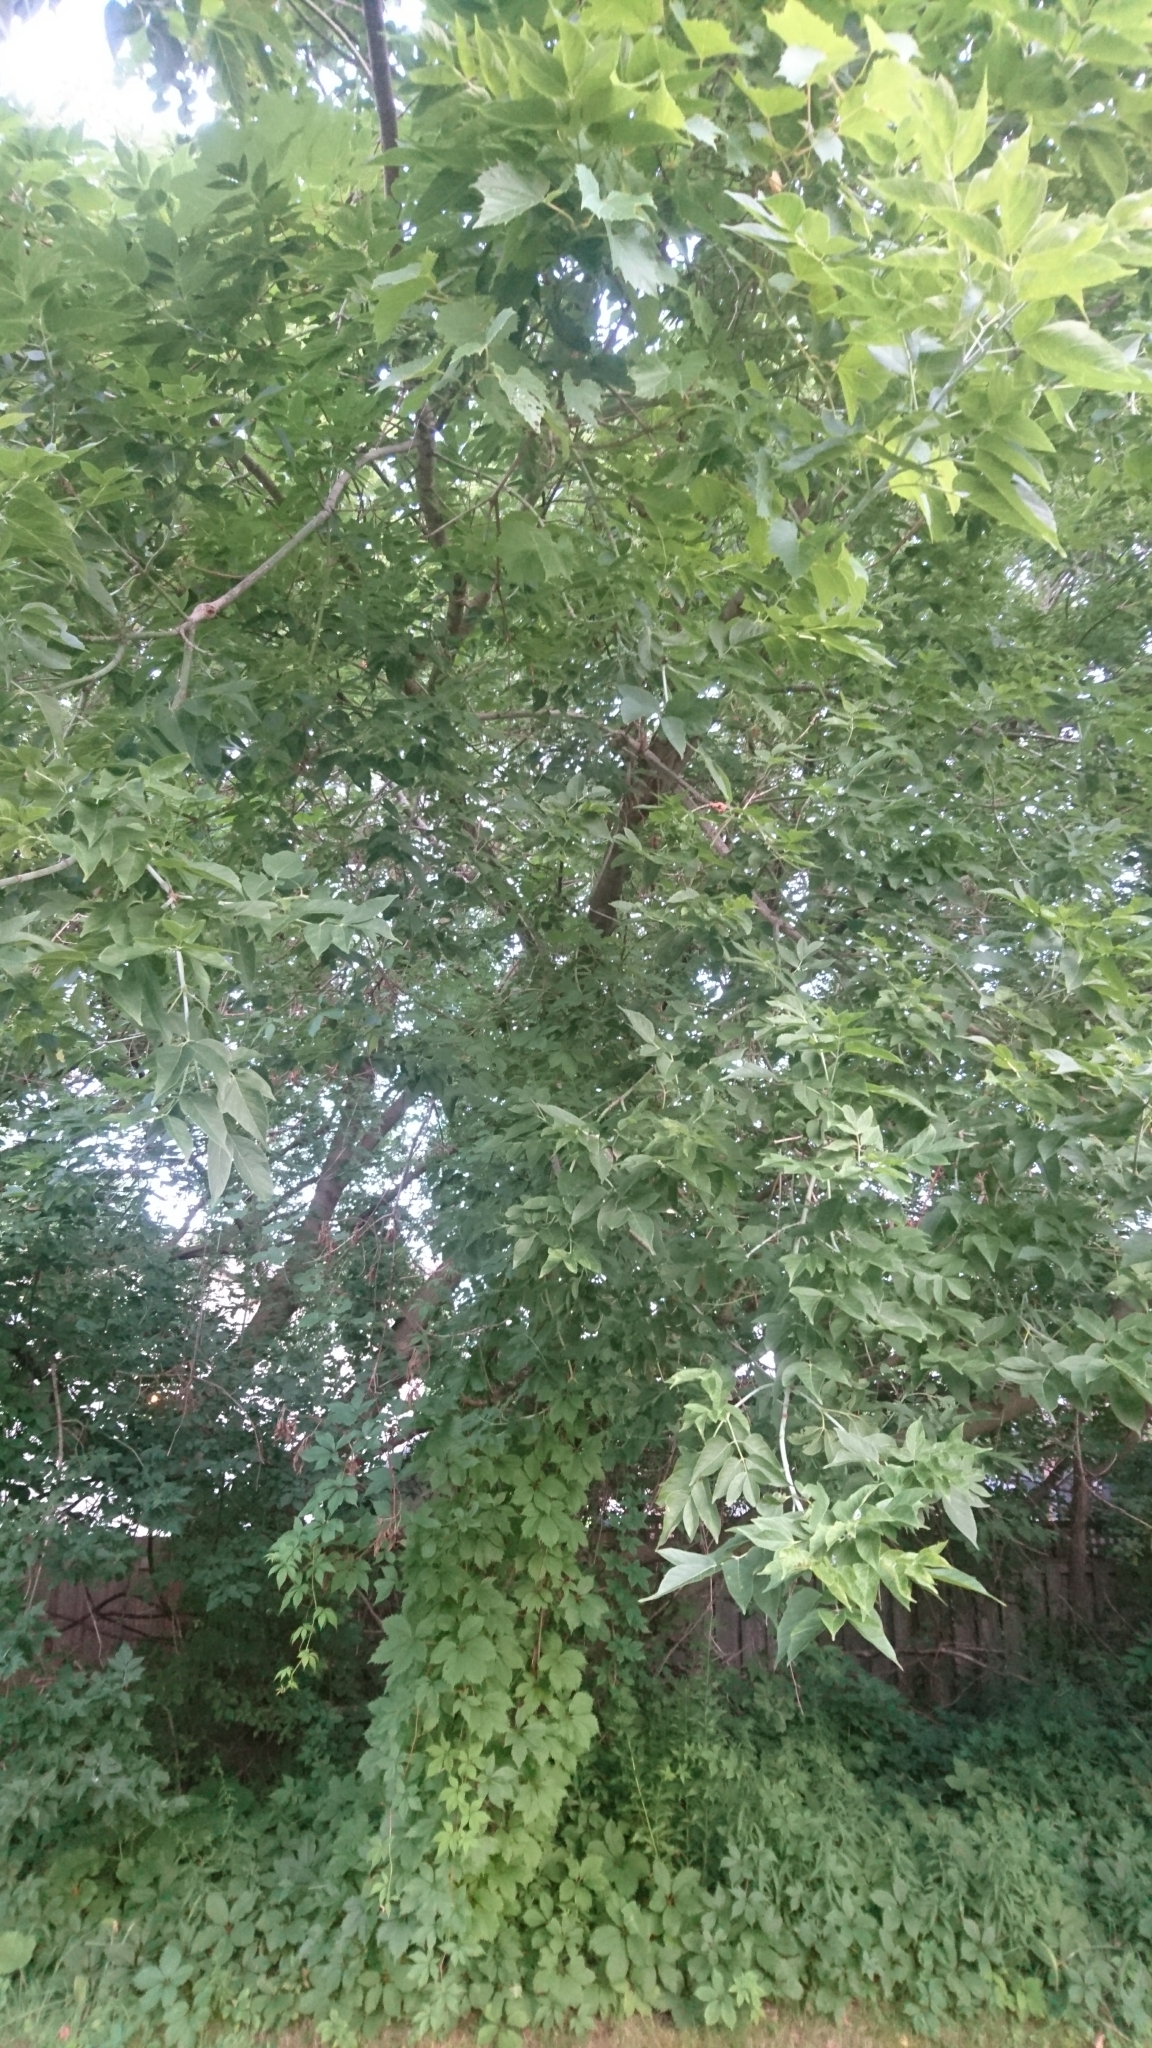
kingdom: Plantae
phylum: Tracheophyta
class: Magnoliopsida
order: Sapindales
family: Sapindaceae
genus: Acer
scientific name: Acer negundo
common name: Ashleaf maple
